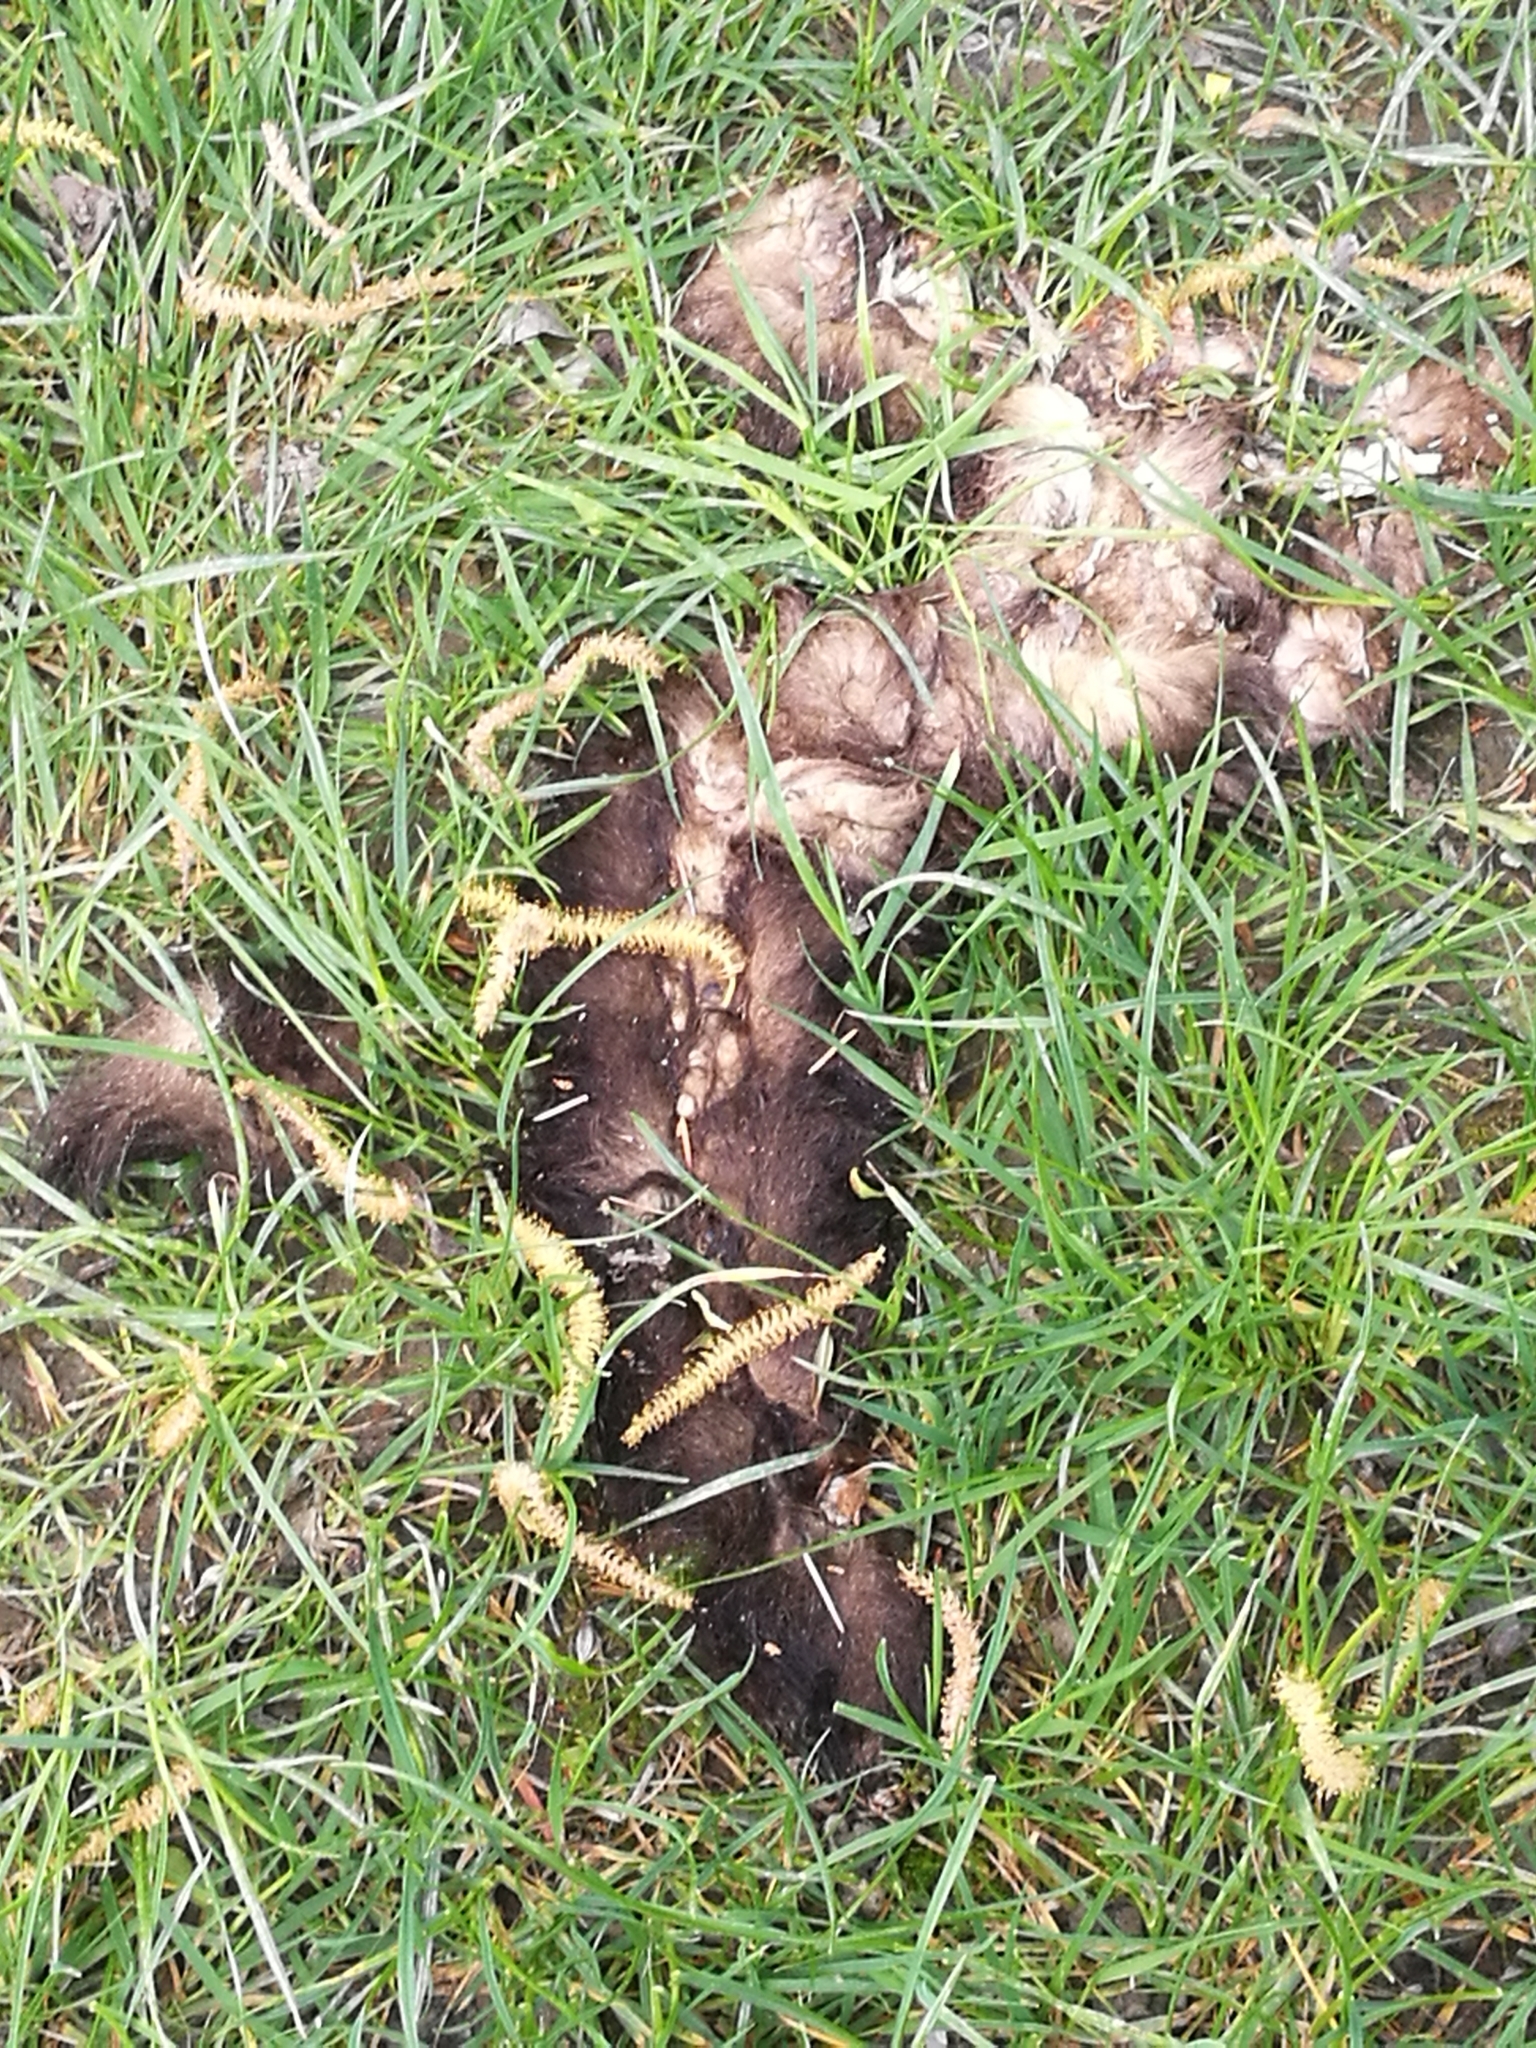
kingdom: Animalia
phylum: Chordata
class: Mammalia
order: Diprotodontia
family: Phalangeridae
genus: Trichosurus
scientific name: Trichosurus vulpecula
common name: Common brushtail
